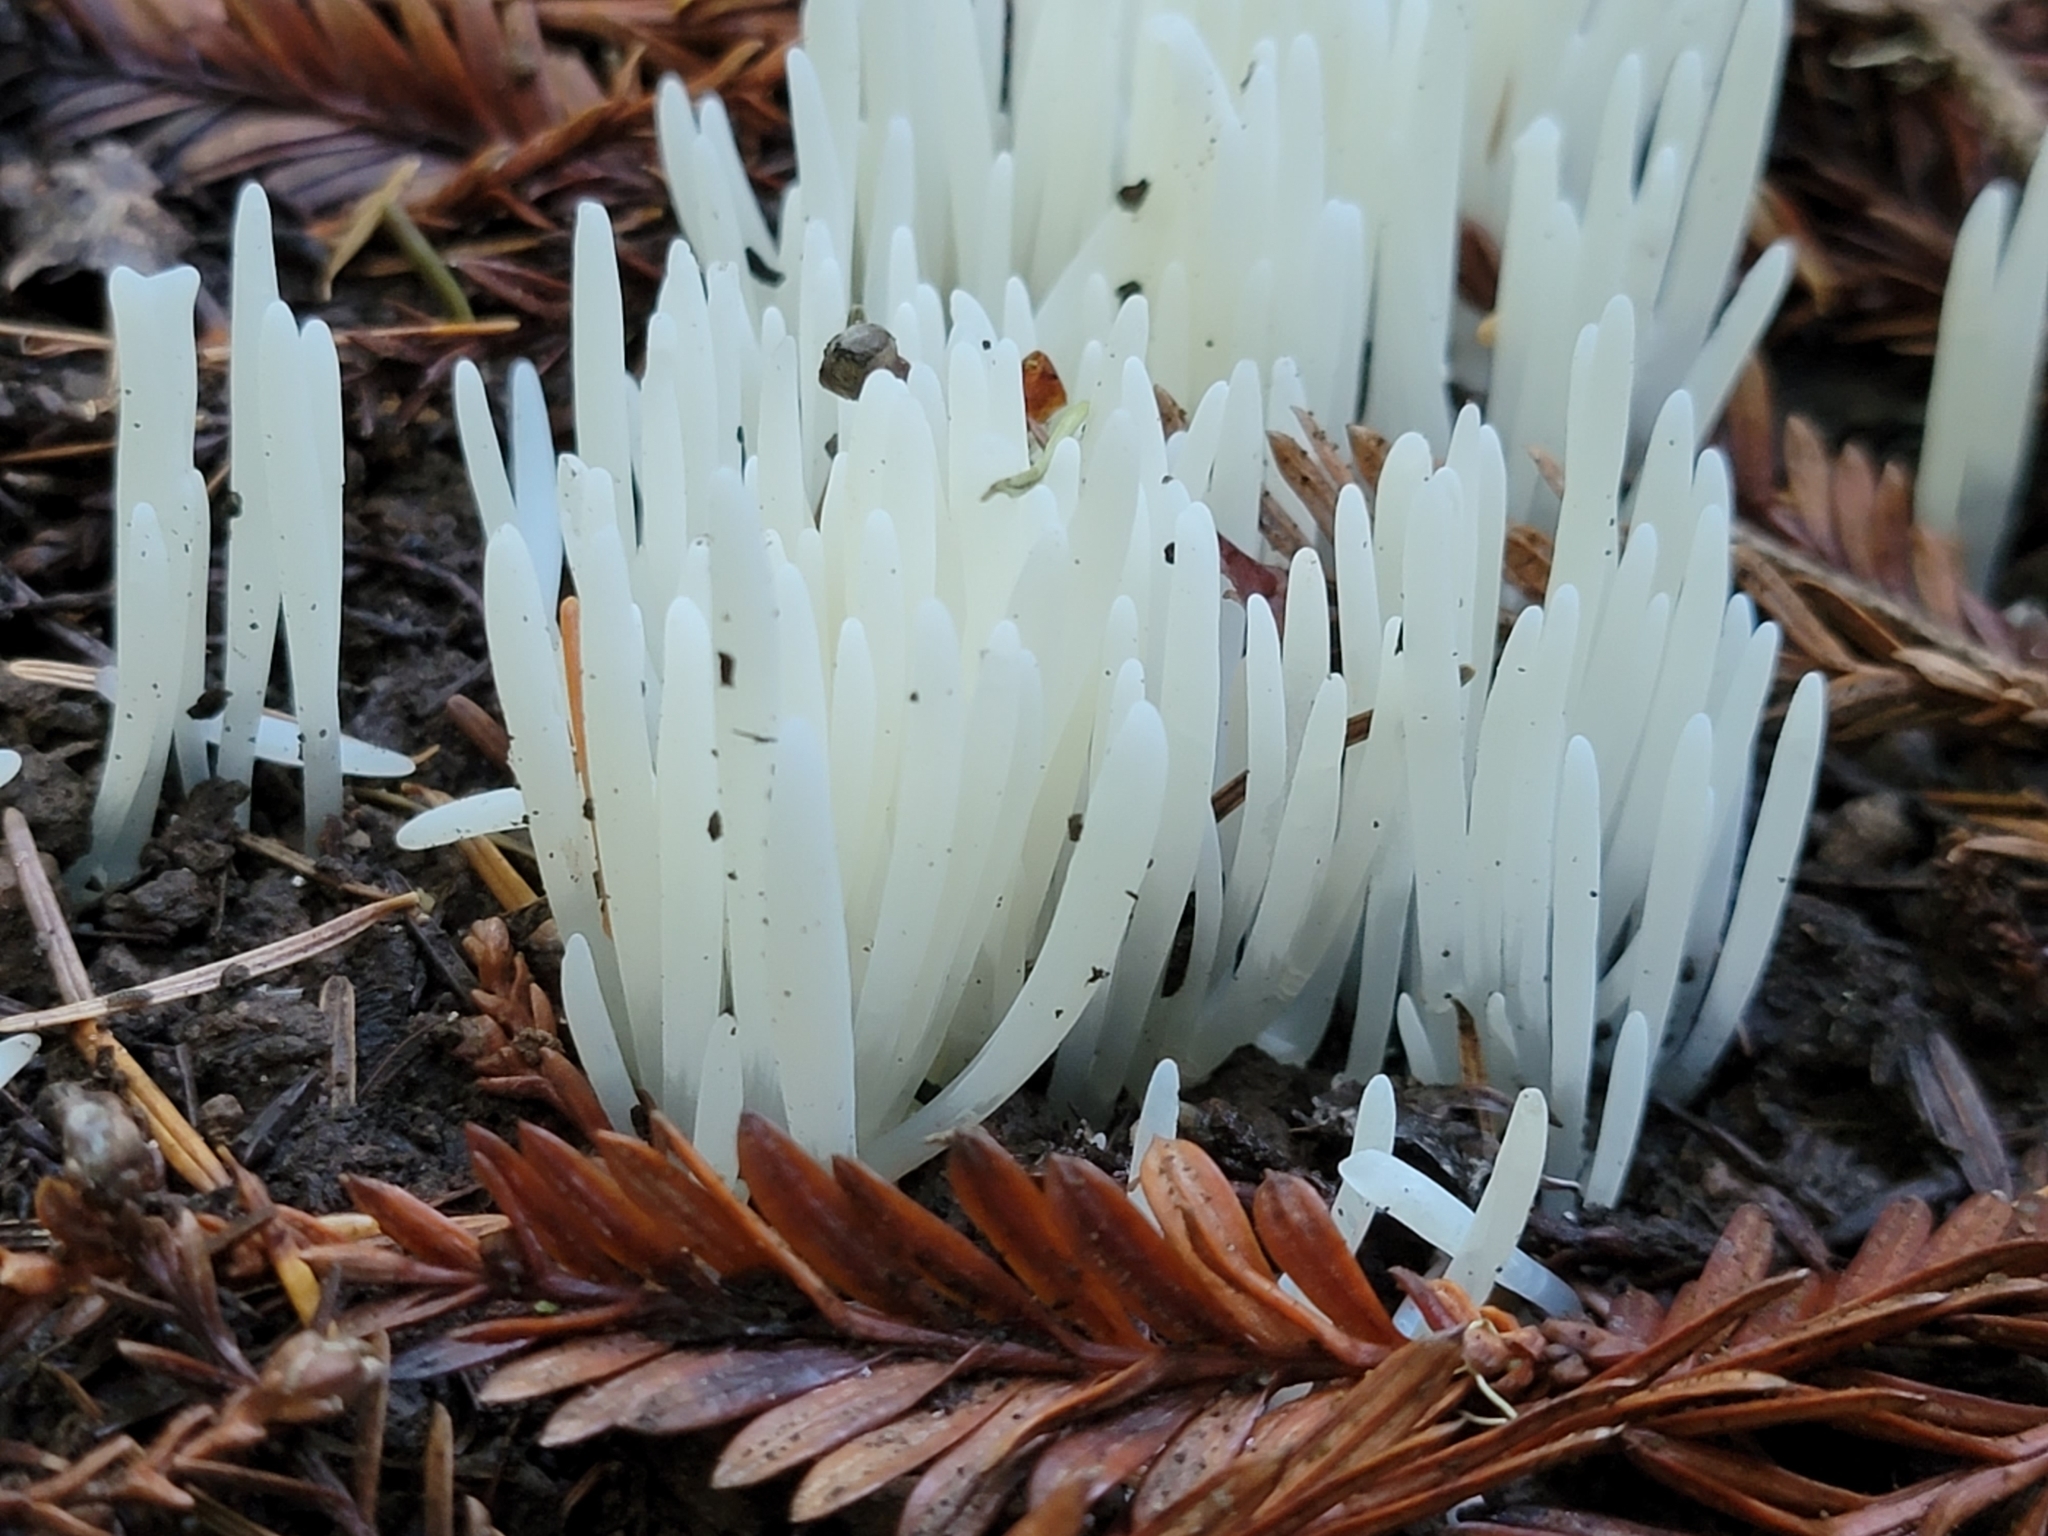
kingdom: Fungi
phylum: Basidiomycota
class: Agaricomycetes
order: Agaricales
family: Clavariaceae
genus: Clavaria
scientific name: Clavaria fragilis
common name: White spindles
